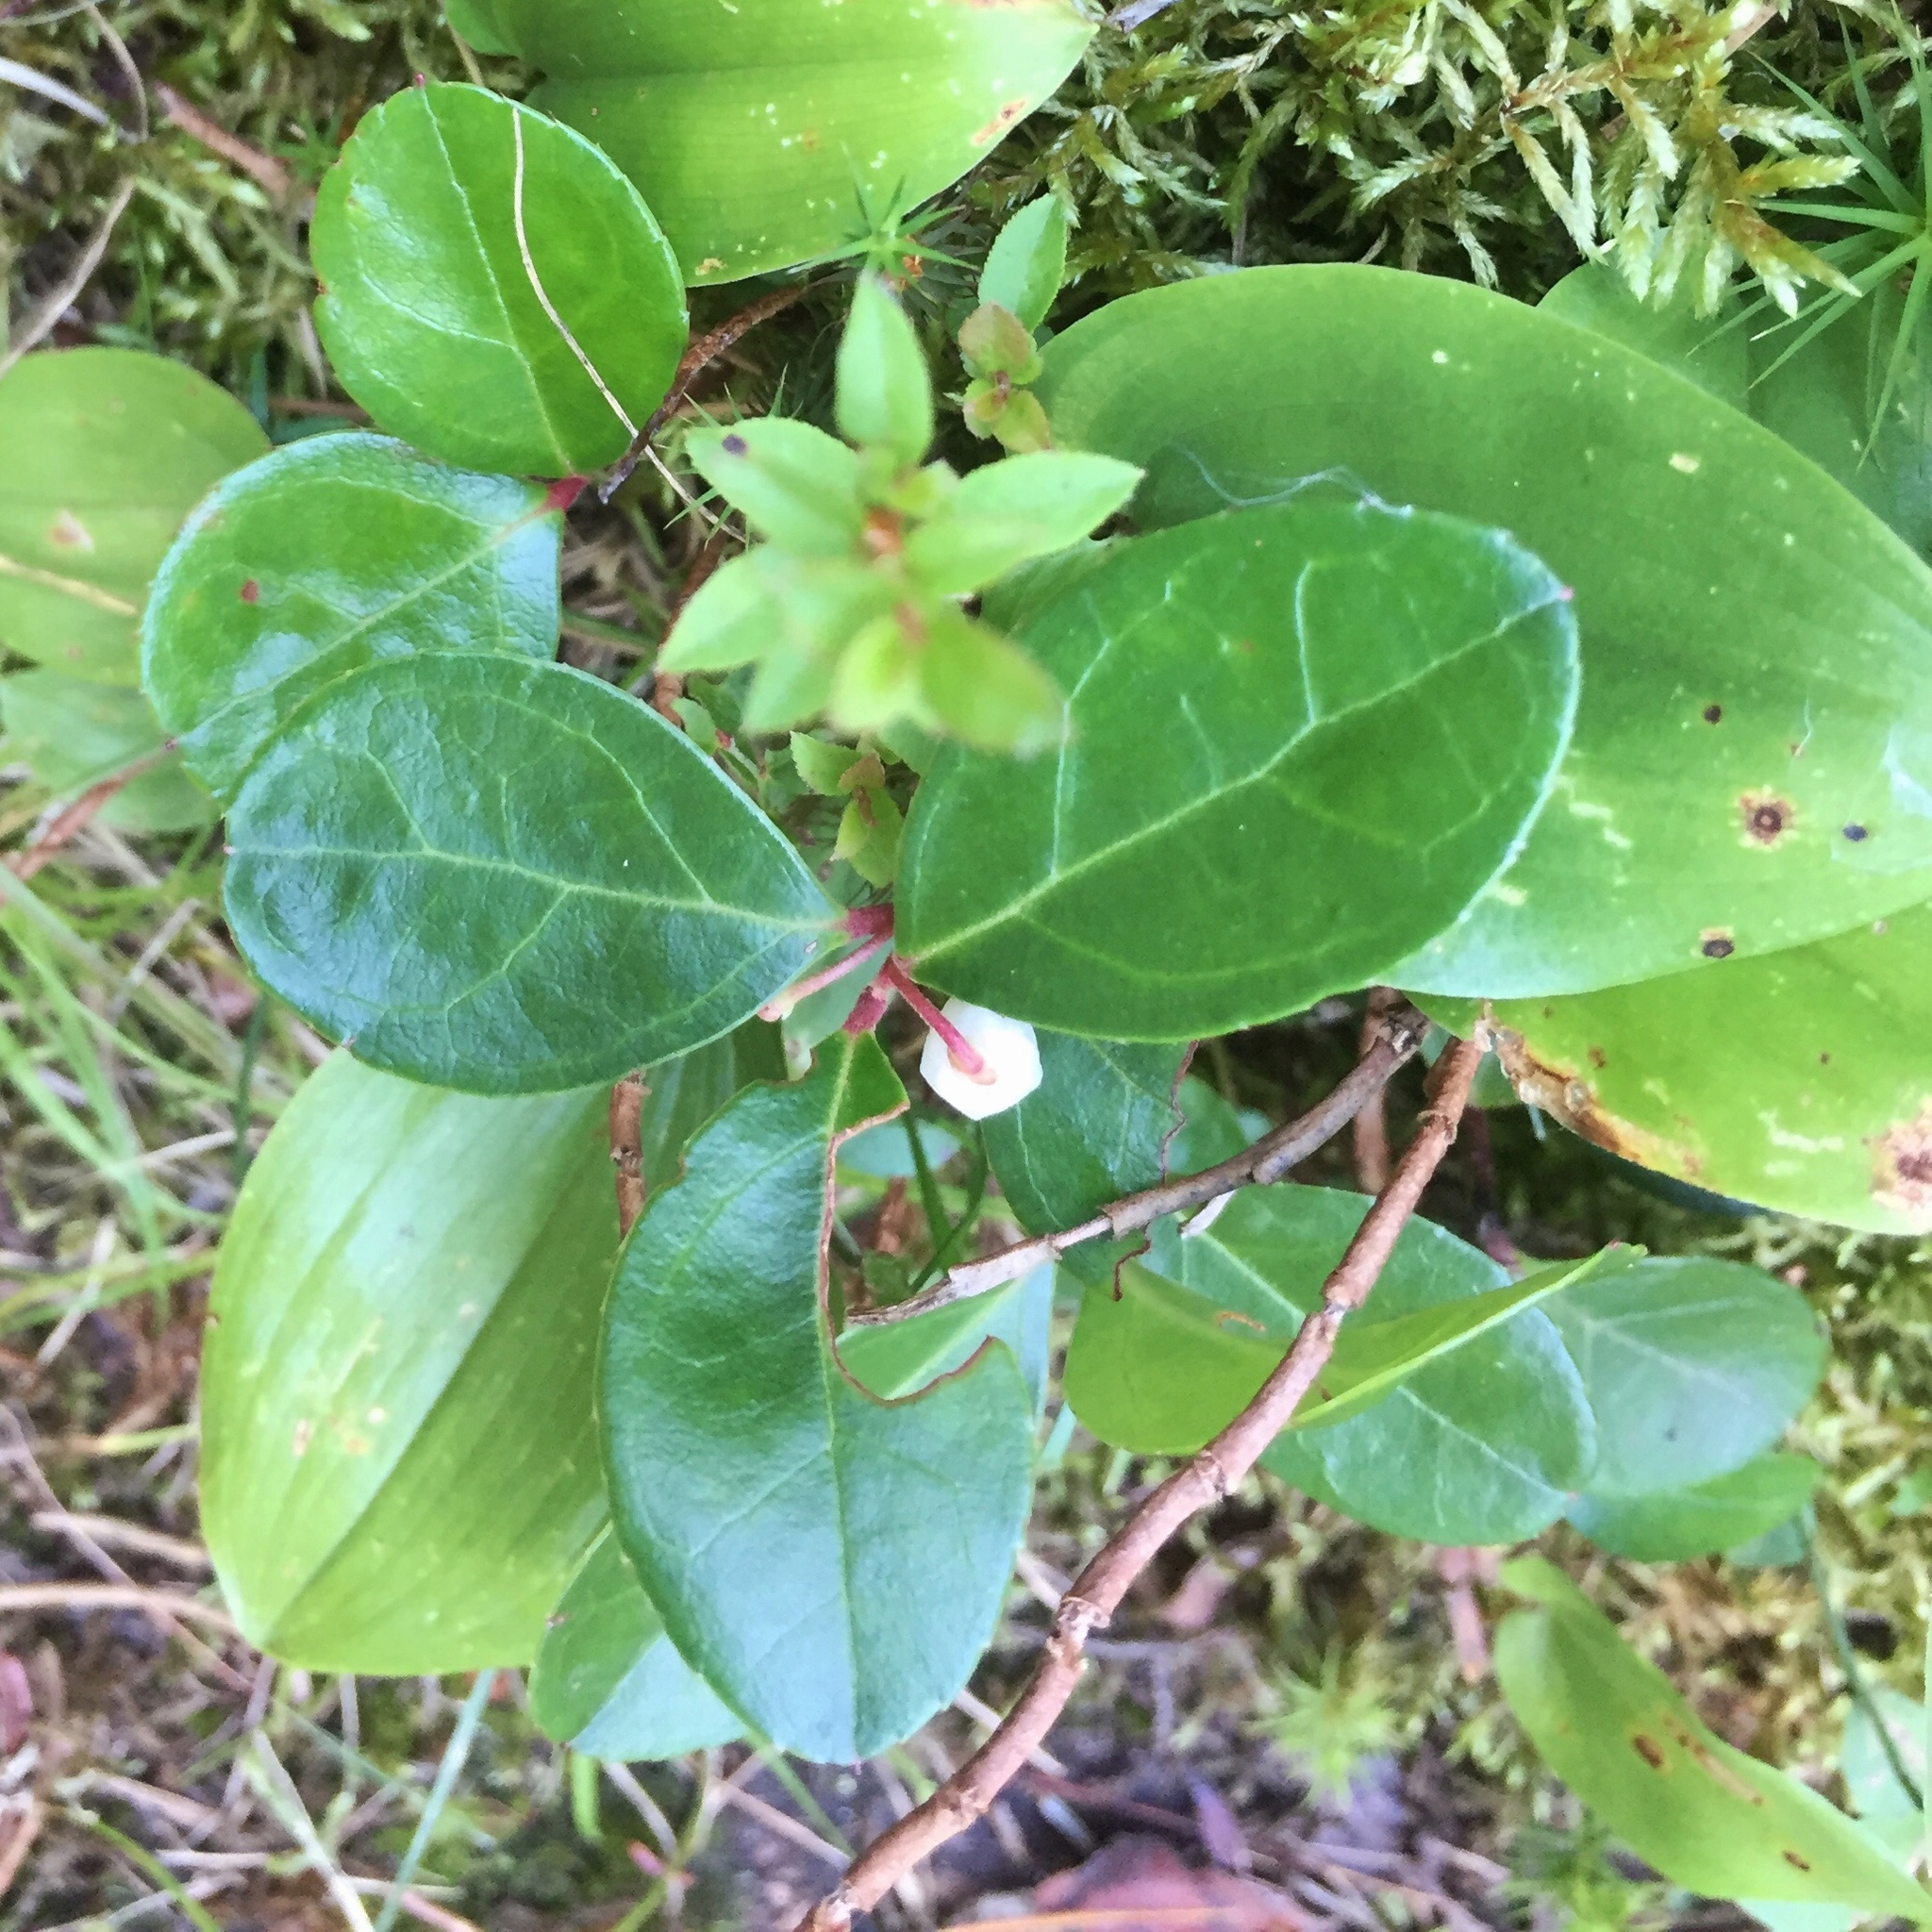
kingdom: Plantae
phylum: Tracheophyta
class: Magnoliopsida
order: Ericales
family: Ericaceae
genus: Gaultheria
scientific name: Gaultheria procumbens
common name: Checkerberry
